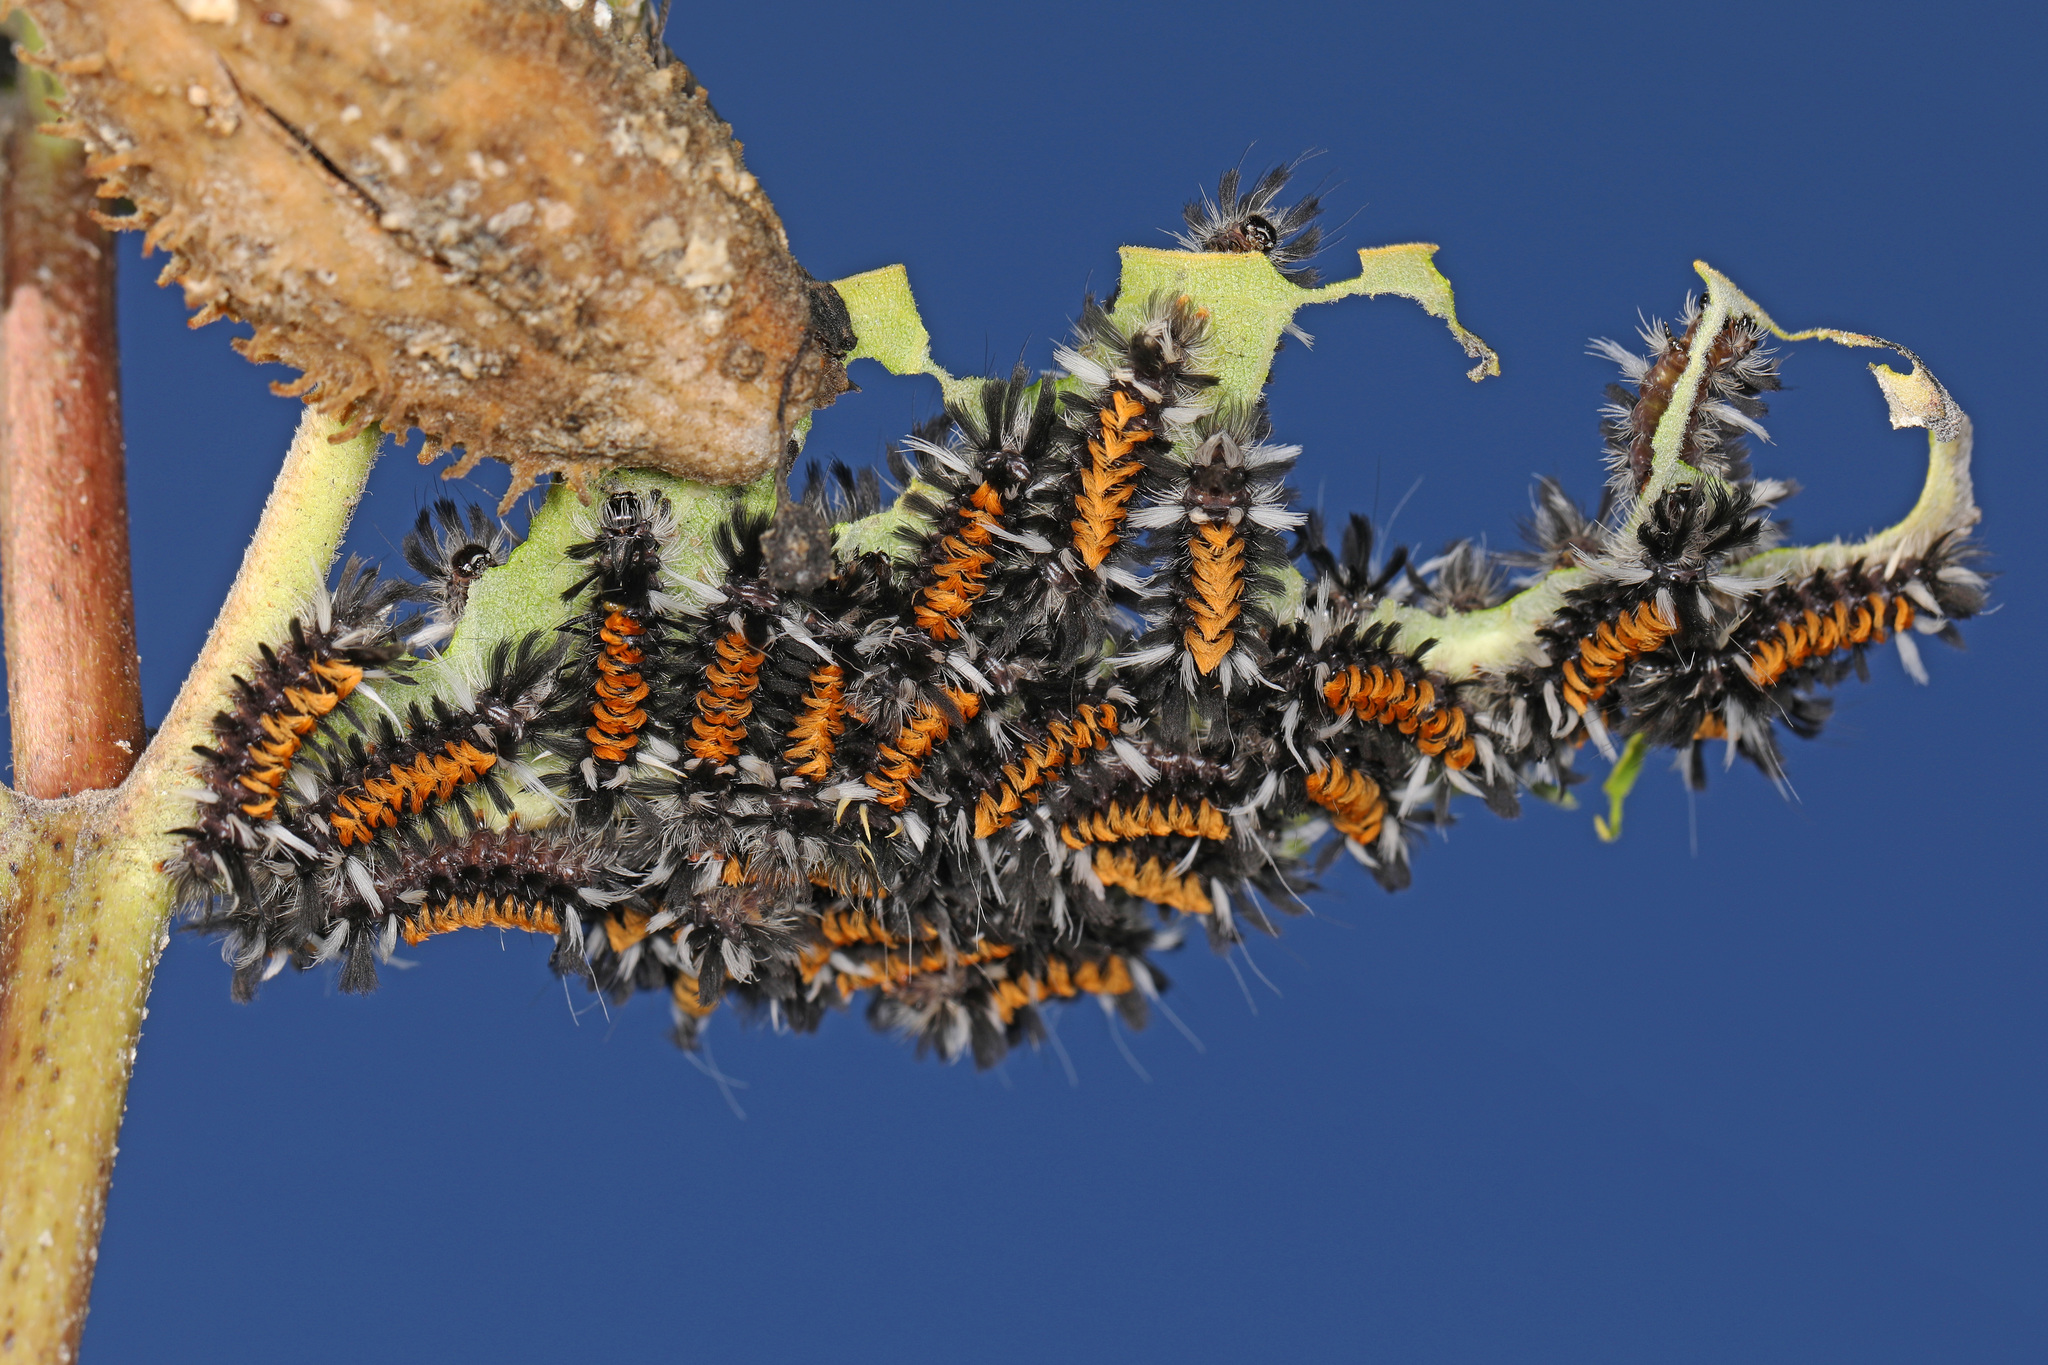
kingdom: Animalia
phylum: Arthropoda
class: Insecta
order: Lepidoptera
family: Erebidae
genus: Euchaetes
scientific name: Euchaetes egle
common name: Milkweed tussock moth
